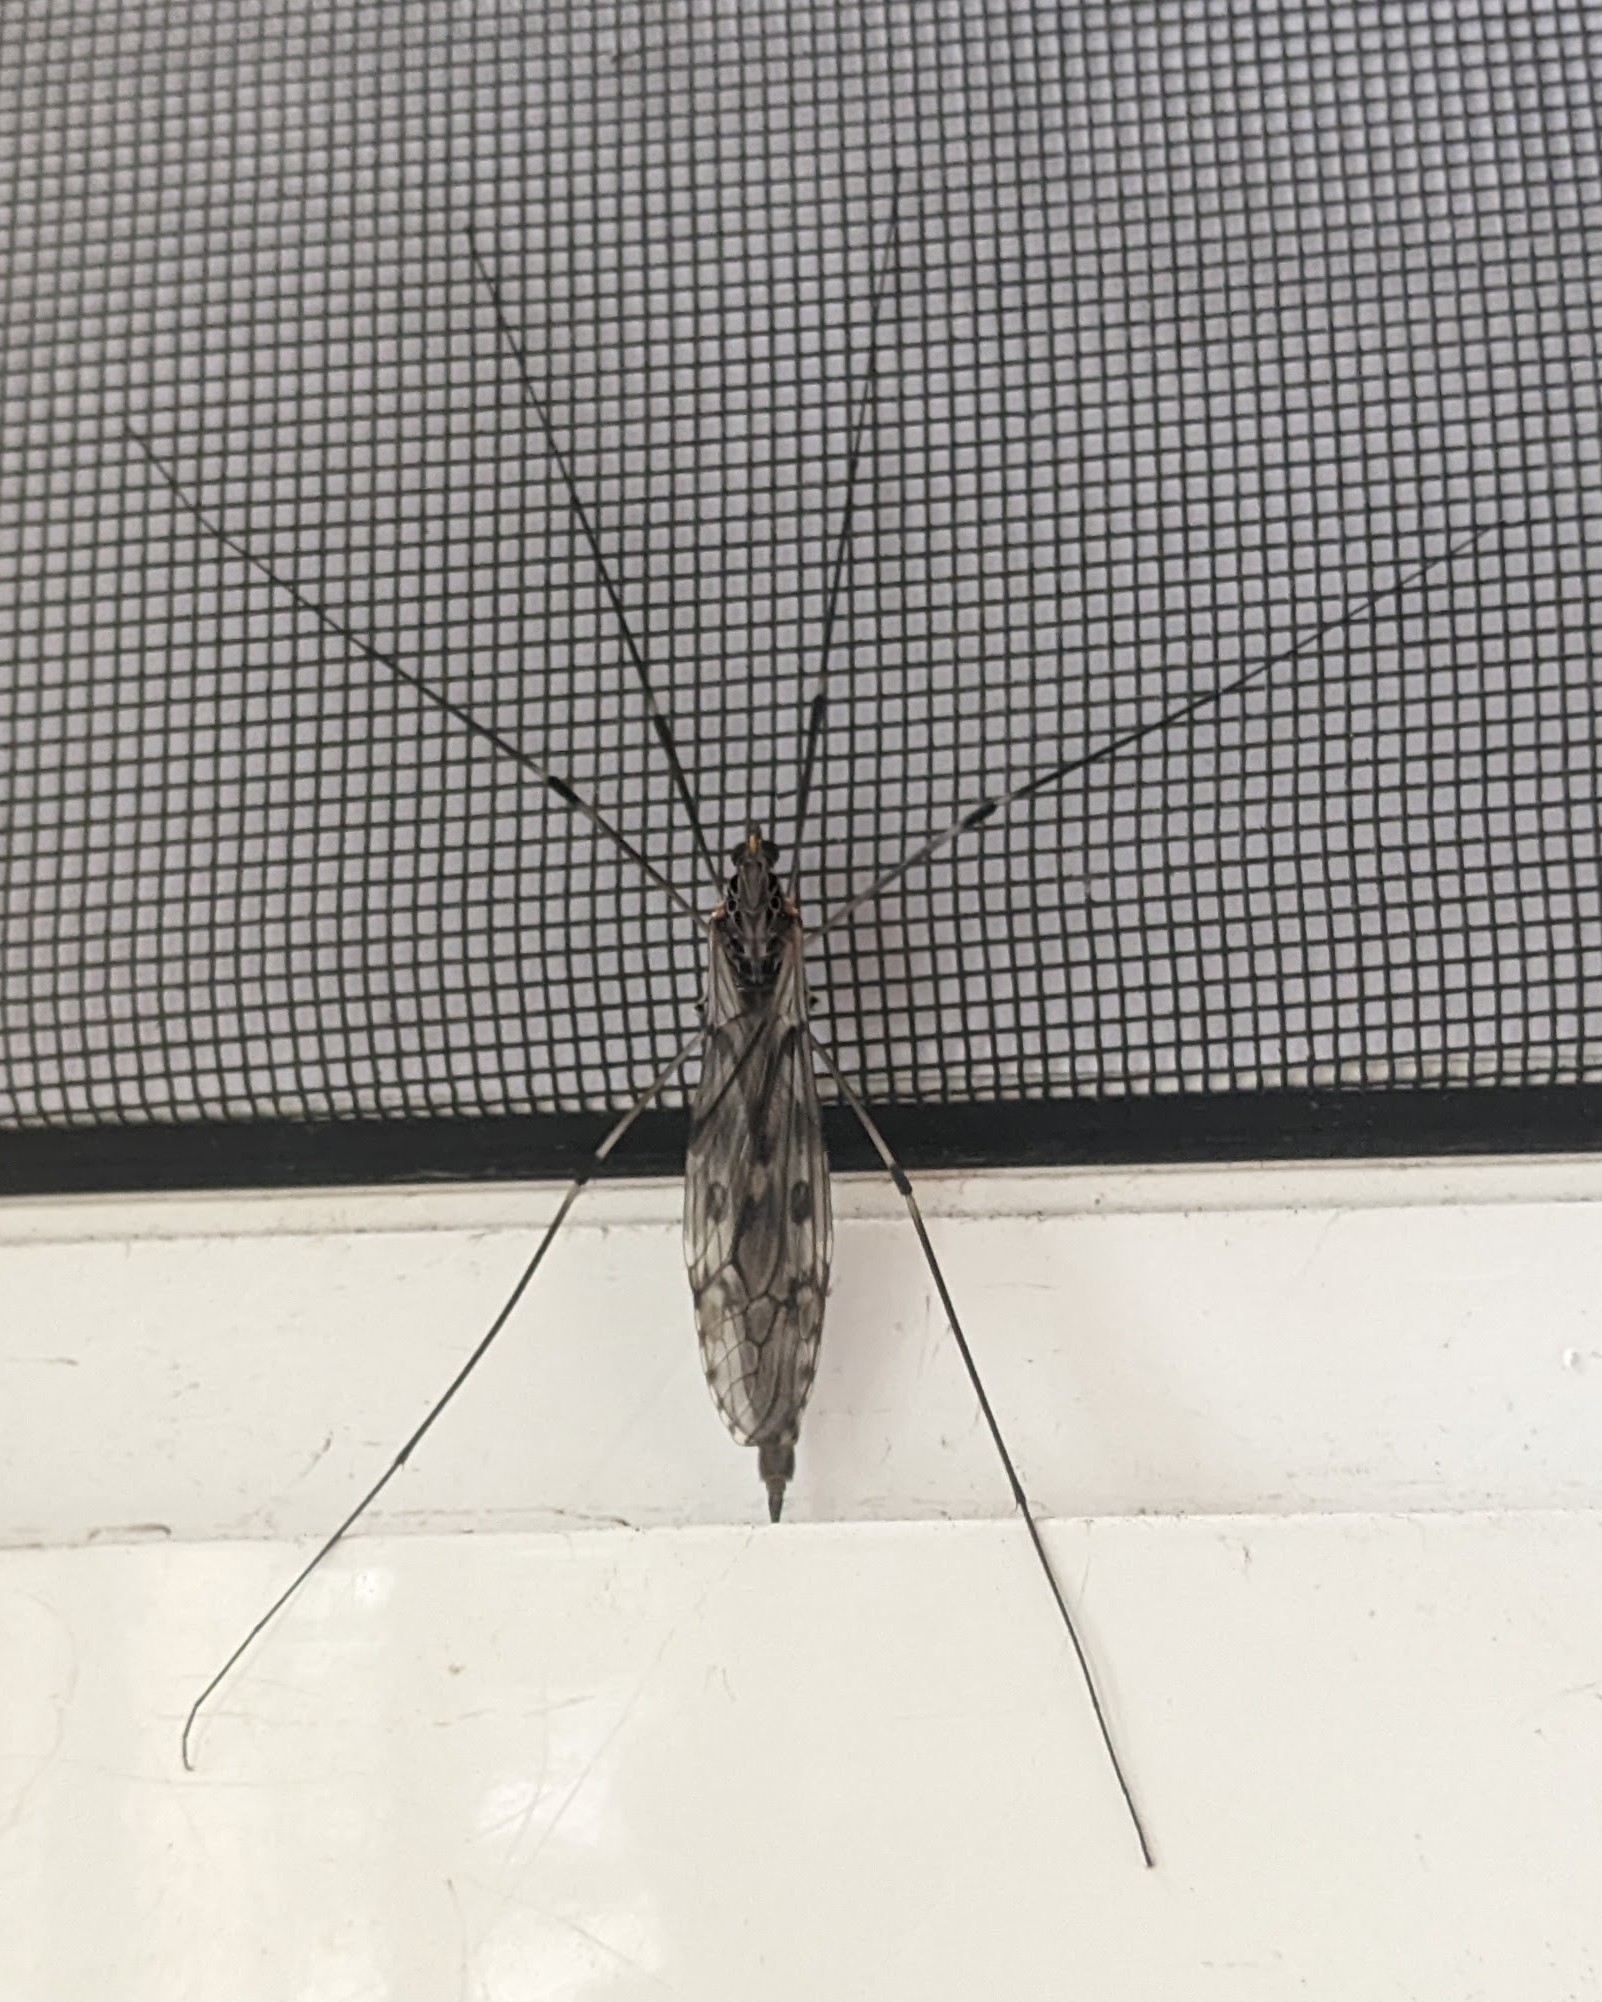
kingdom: Animalia
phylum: Arthropoda
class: Insecta
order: Diptera
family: Tipulidae
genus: Tipula
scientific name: Tipula abdominalis
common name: Giant crane fly
